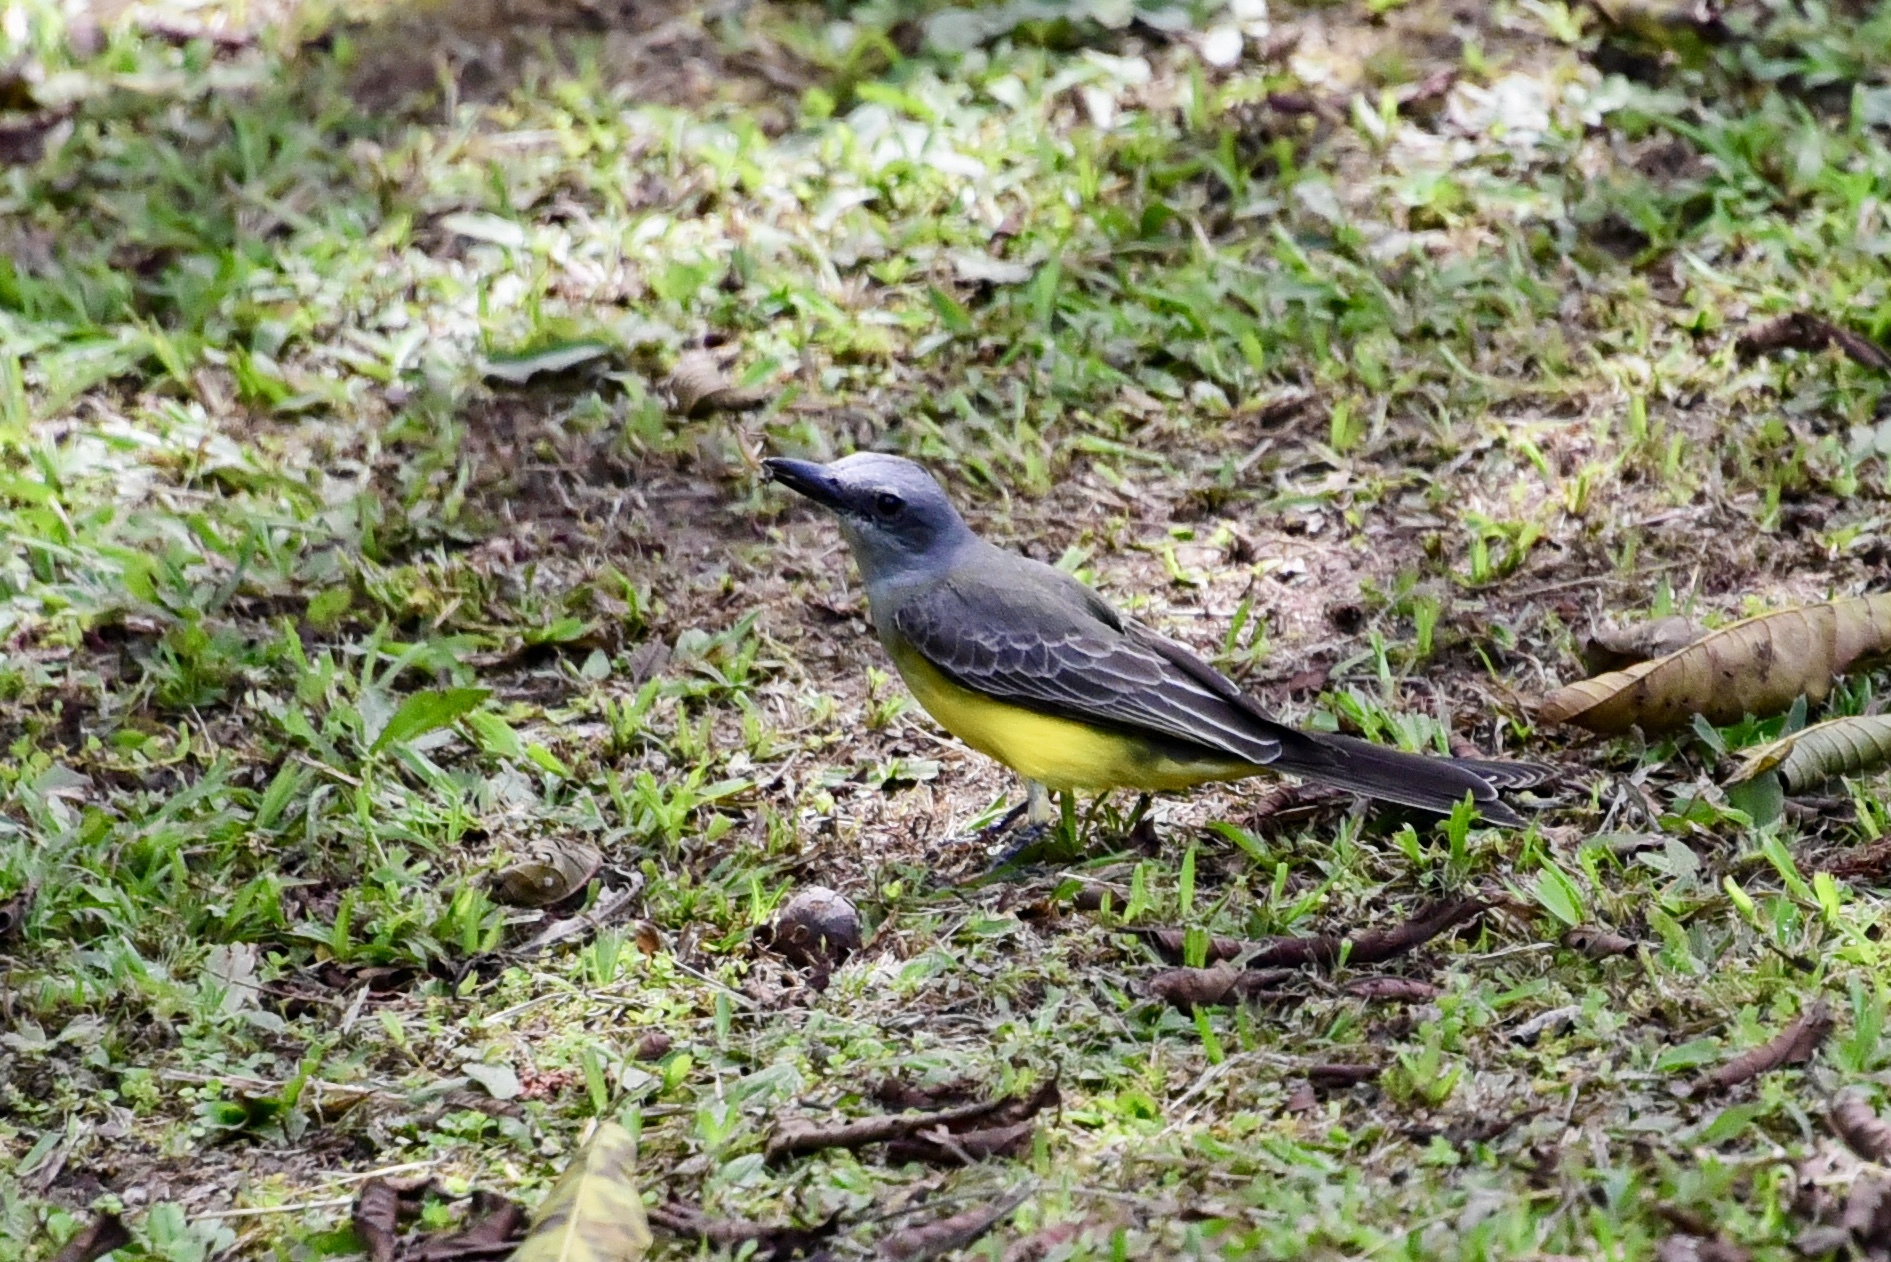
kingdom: Animalia
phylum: Chordata
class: Aves
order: Passeriformes
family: Tyrannidae
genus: Tyrannus
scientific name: Tyrannus melancholicus
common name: Tropical kingbird
